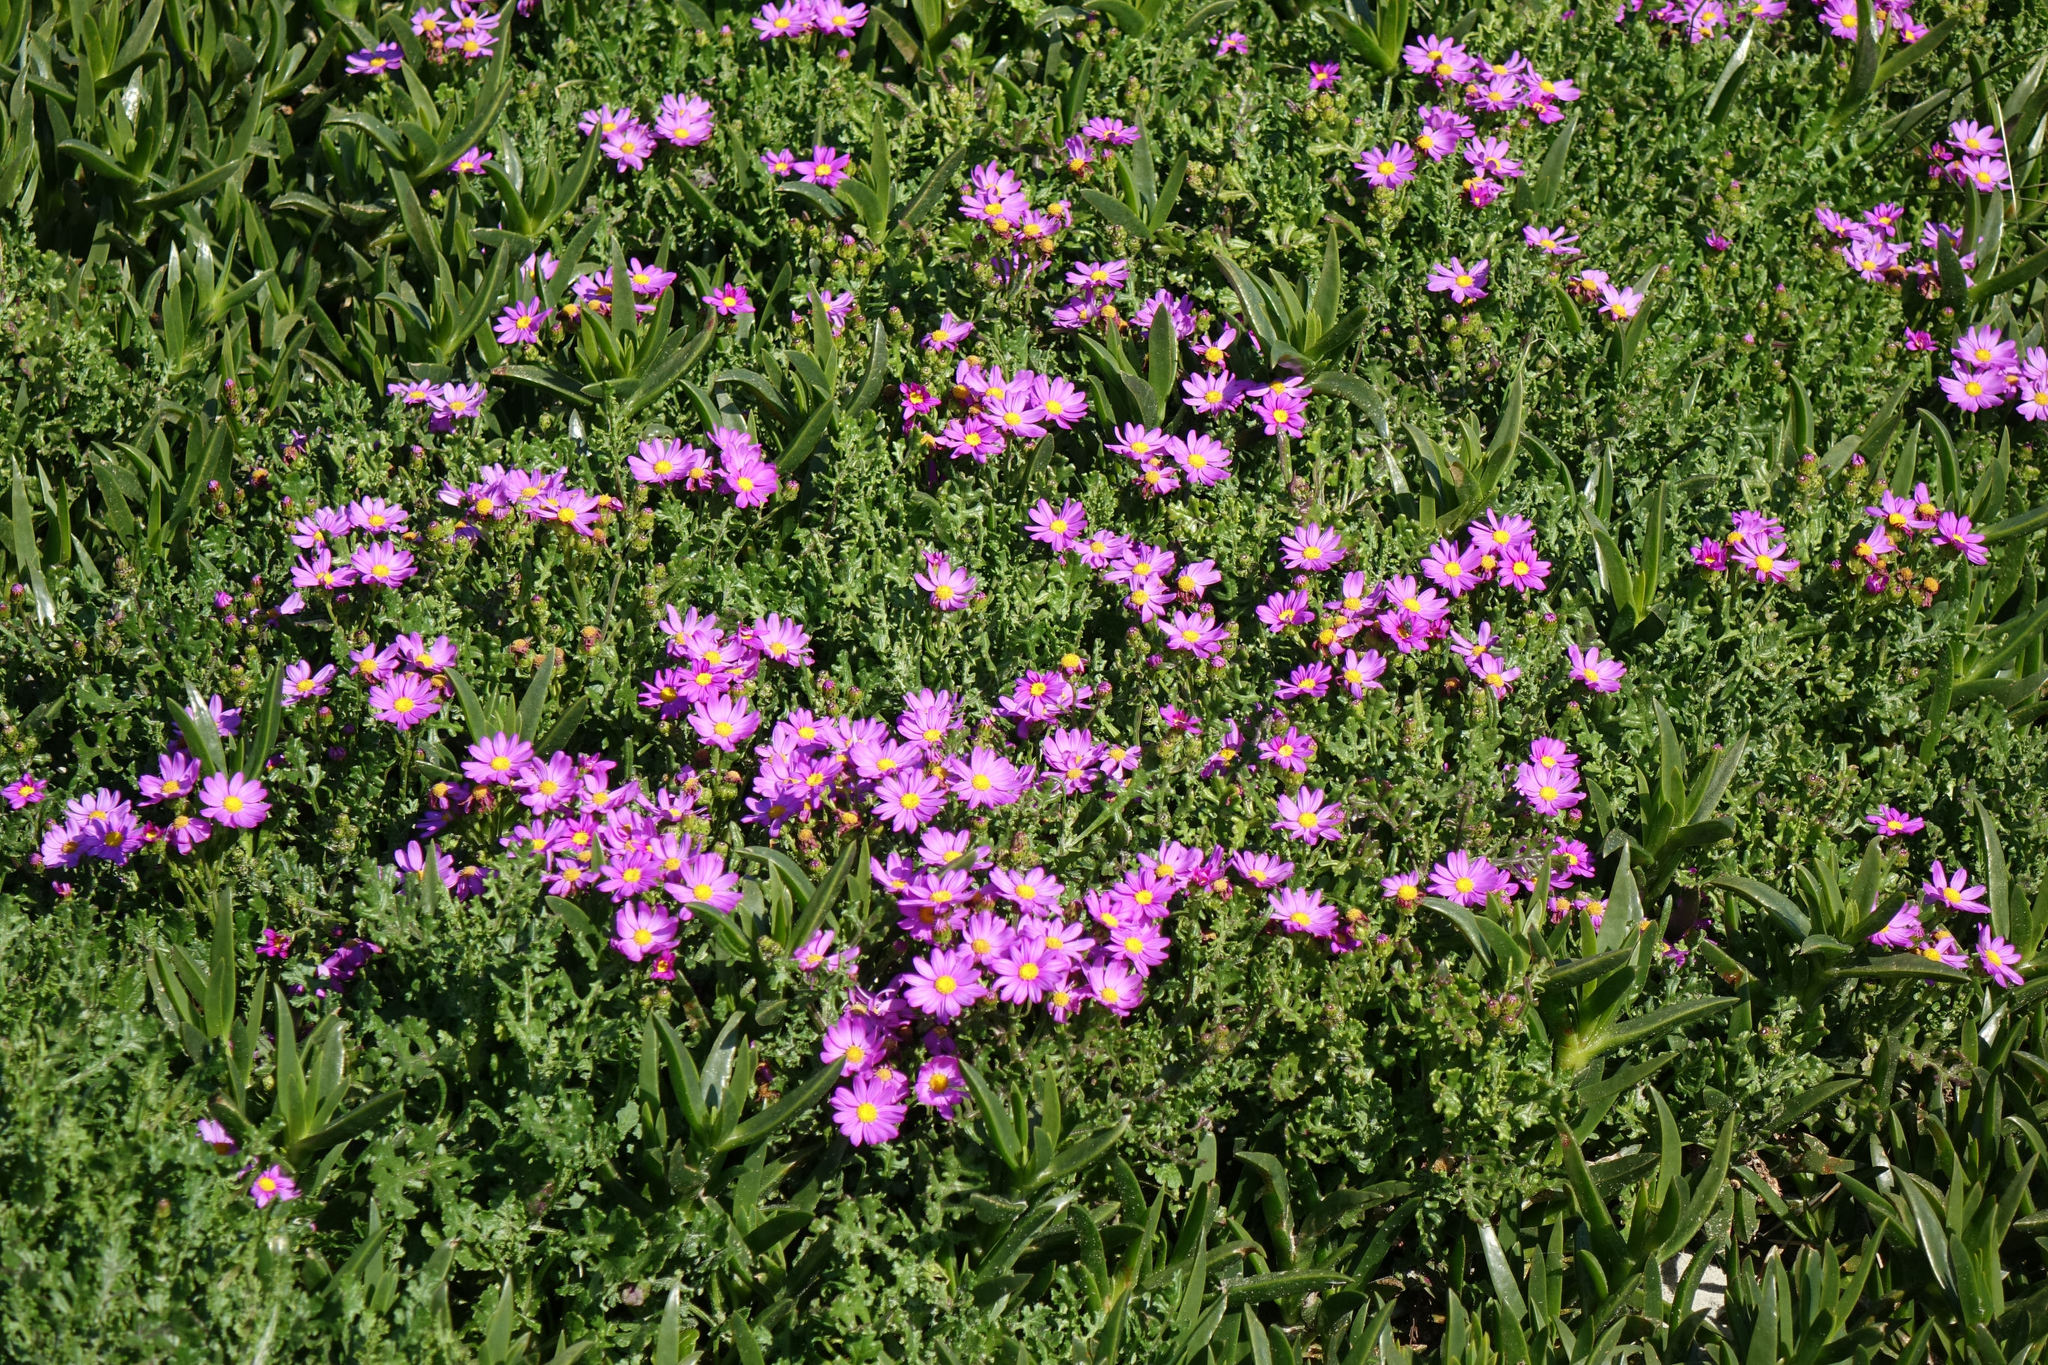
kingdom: Plantae
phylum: Tracheophyta
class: Magnoliopsida
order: Asterales
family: Asteraceae
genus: Senecio
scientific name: Senecio elegans
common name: Purple groundsel
